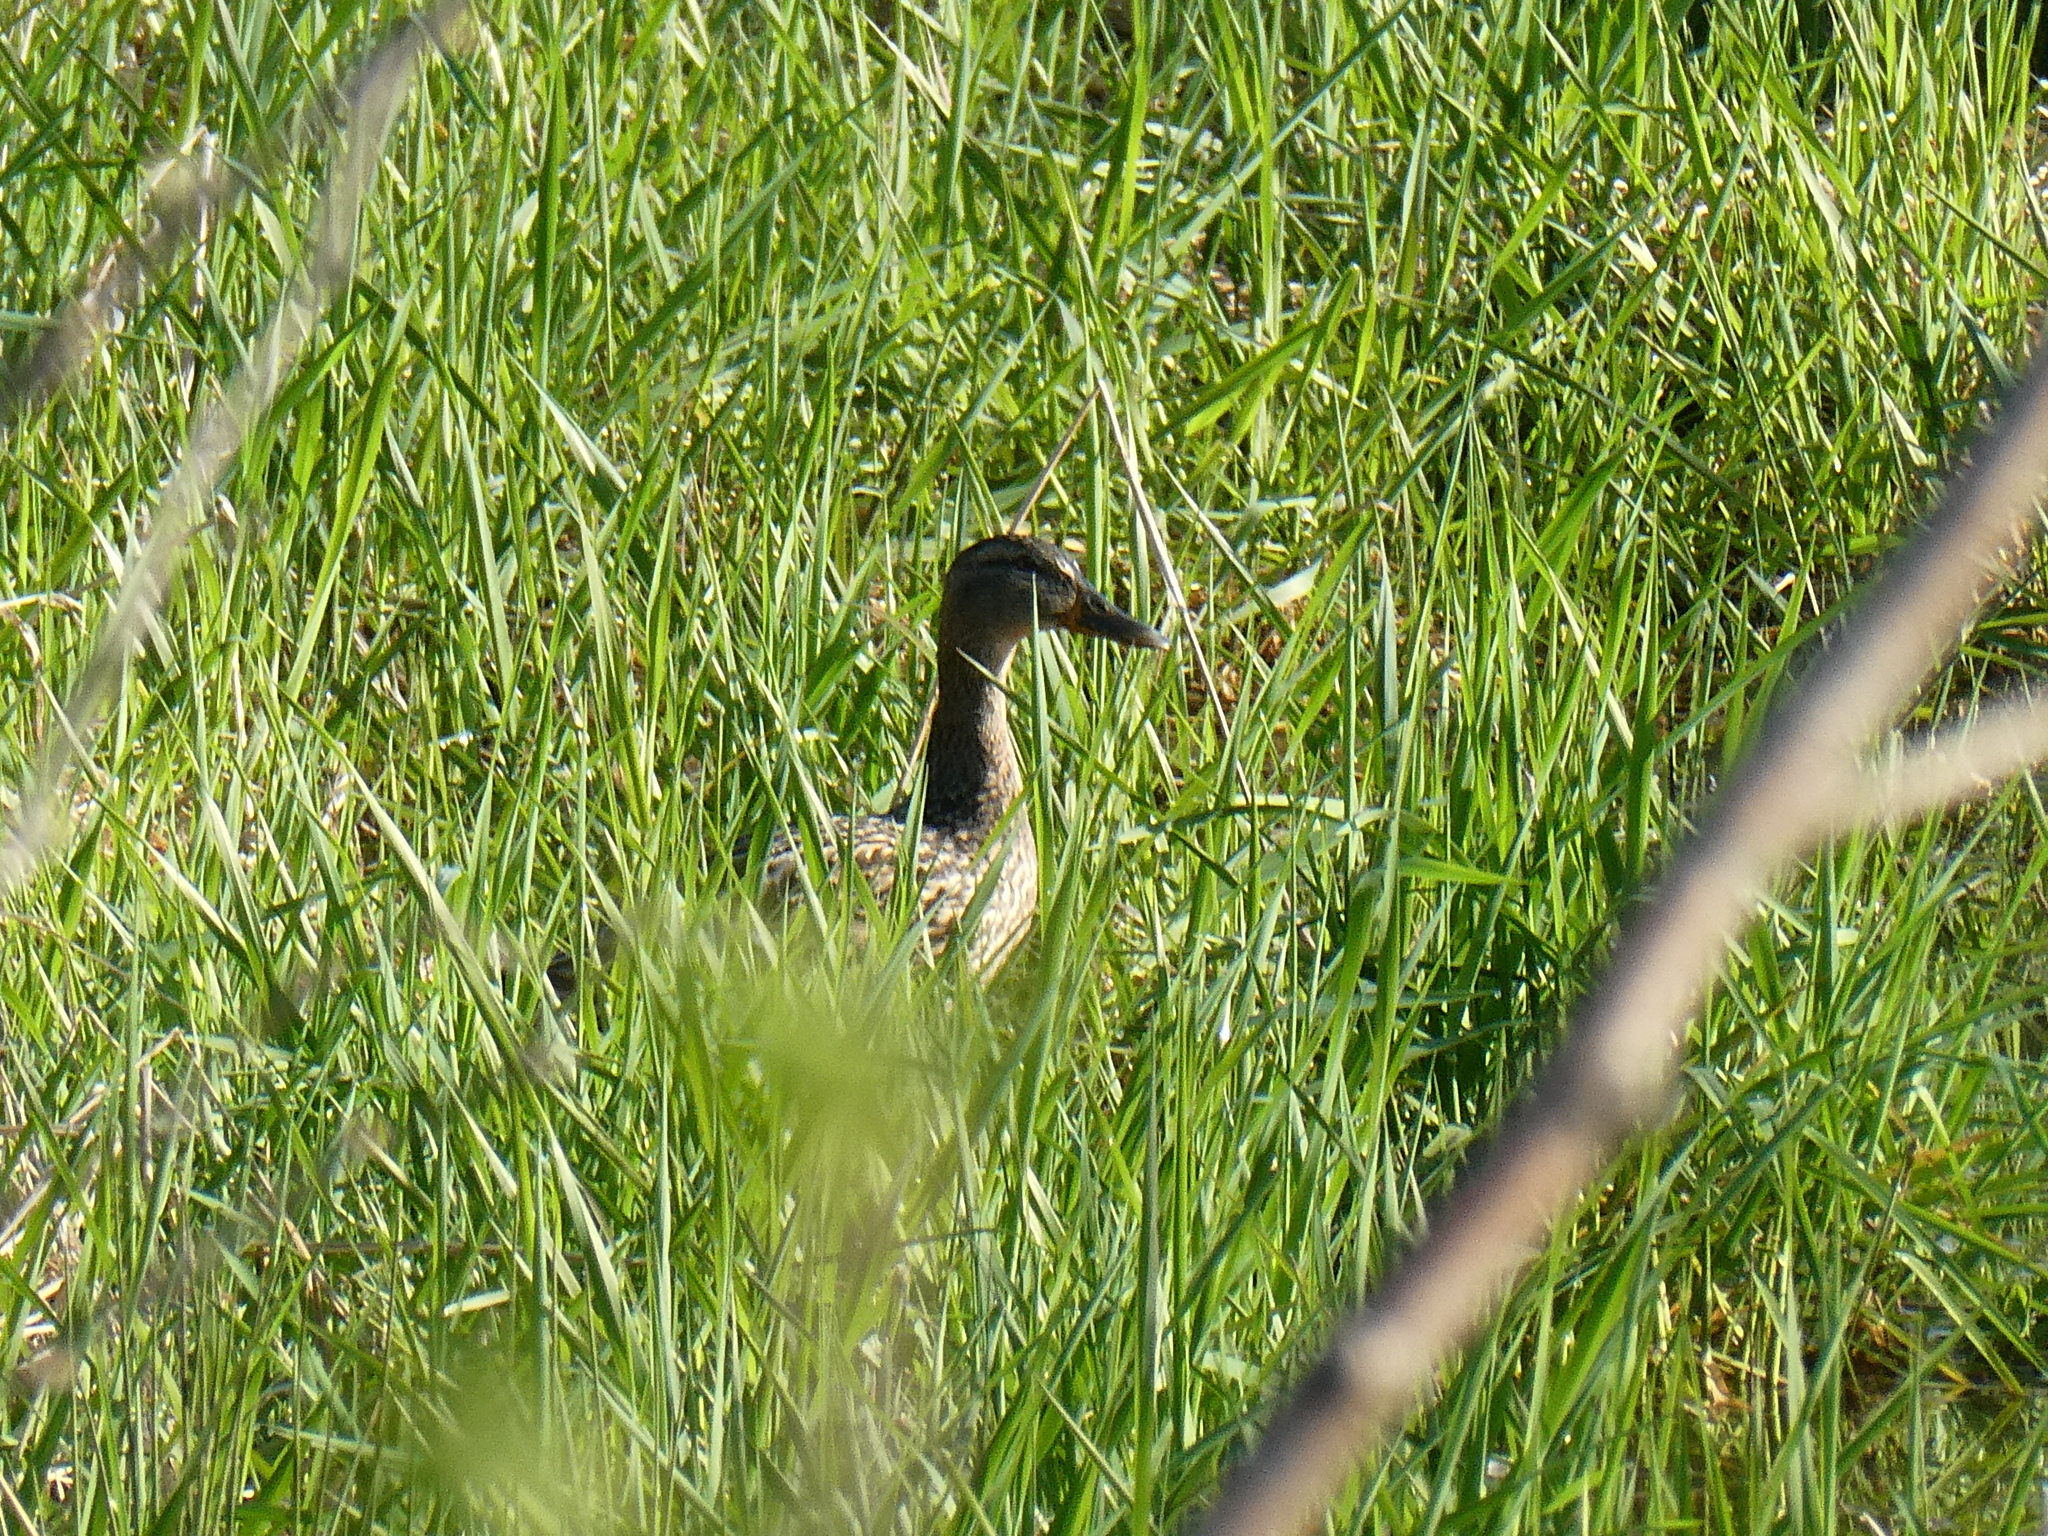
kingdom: Animalia
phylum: Chordata
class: Aves
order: Anseriformes
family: Anatidae
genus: Anas
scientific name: Anas platyrhynchos
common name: Mallard
